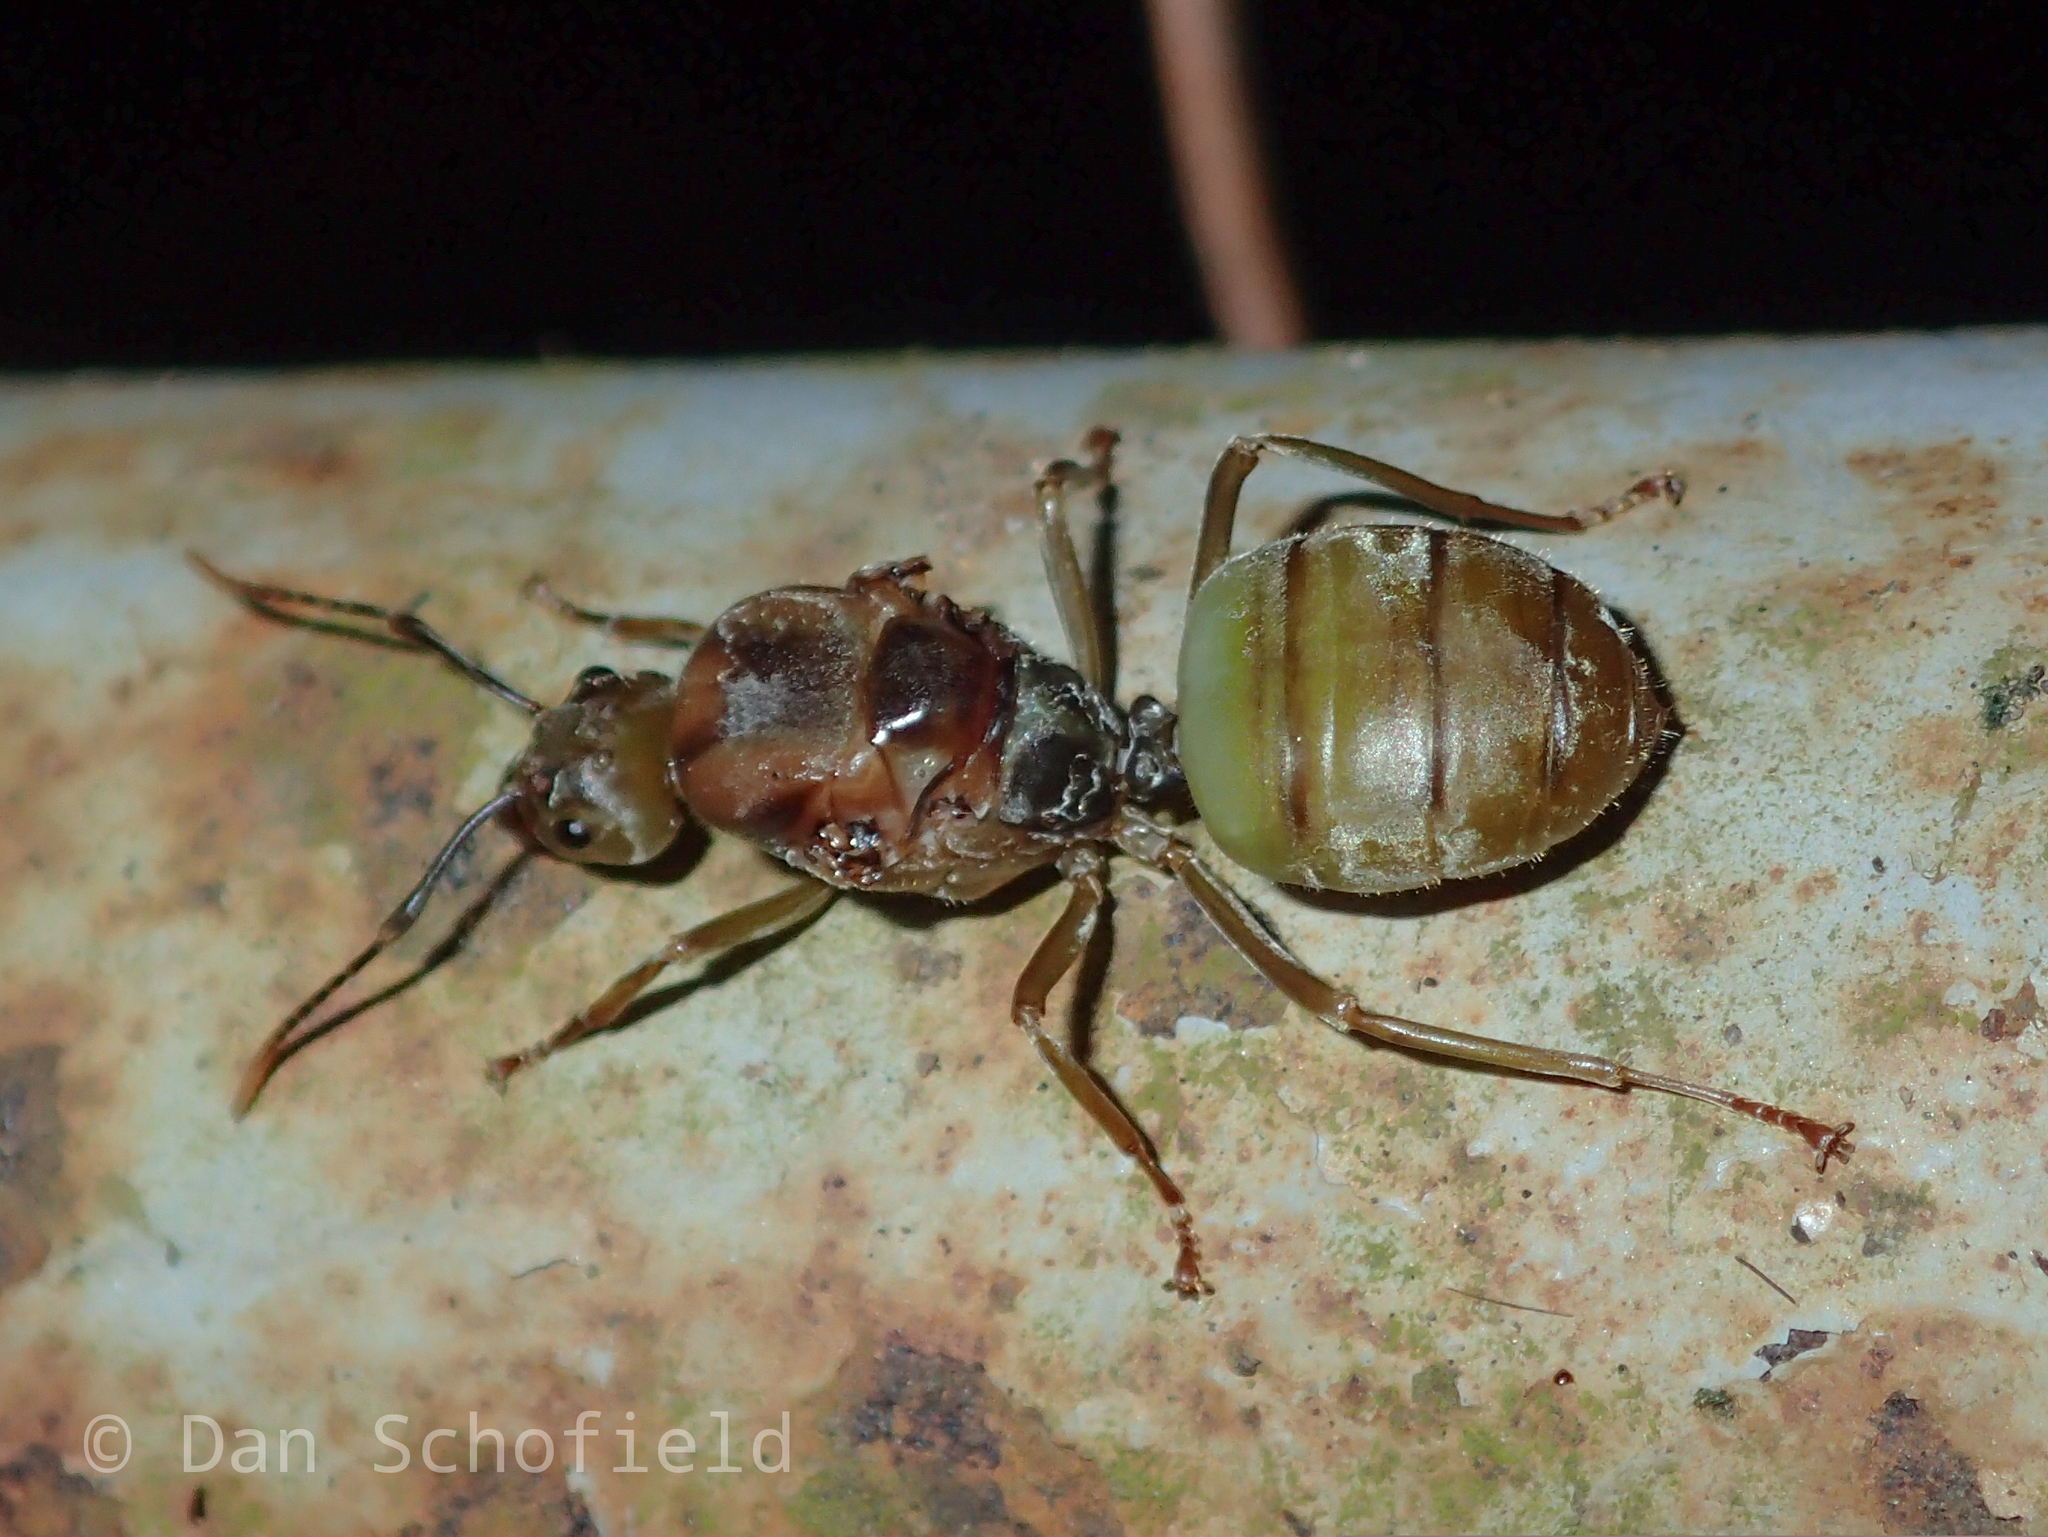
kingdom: Animalia
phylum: Arthropoda
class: Insecta
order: Hymenoptera
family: Formicidae
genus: Oecophylla
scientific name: Oecophylla smaragdina
